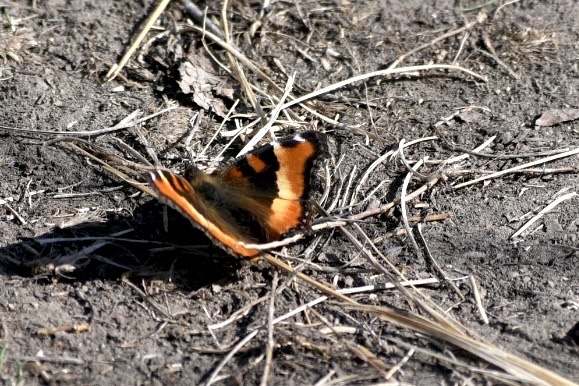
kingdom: Animalia
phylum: Arthropoda
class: Insecta
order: Lepidoptera
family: Nymphalidae
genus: Aglais
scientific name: Aglais milberti
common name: Milbert's tortoiseshell
